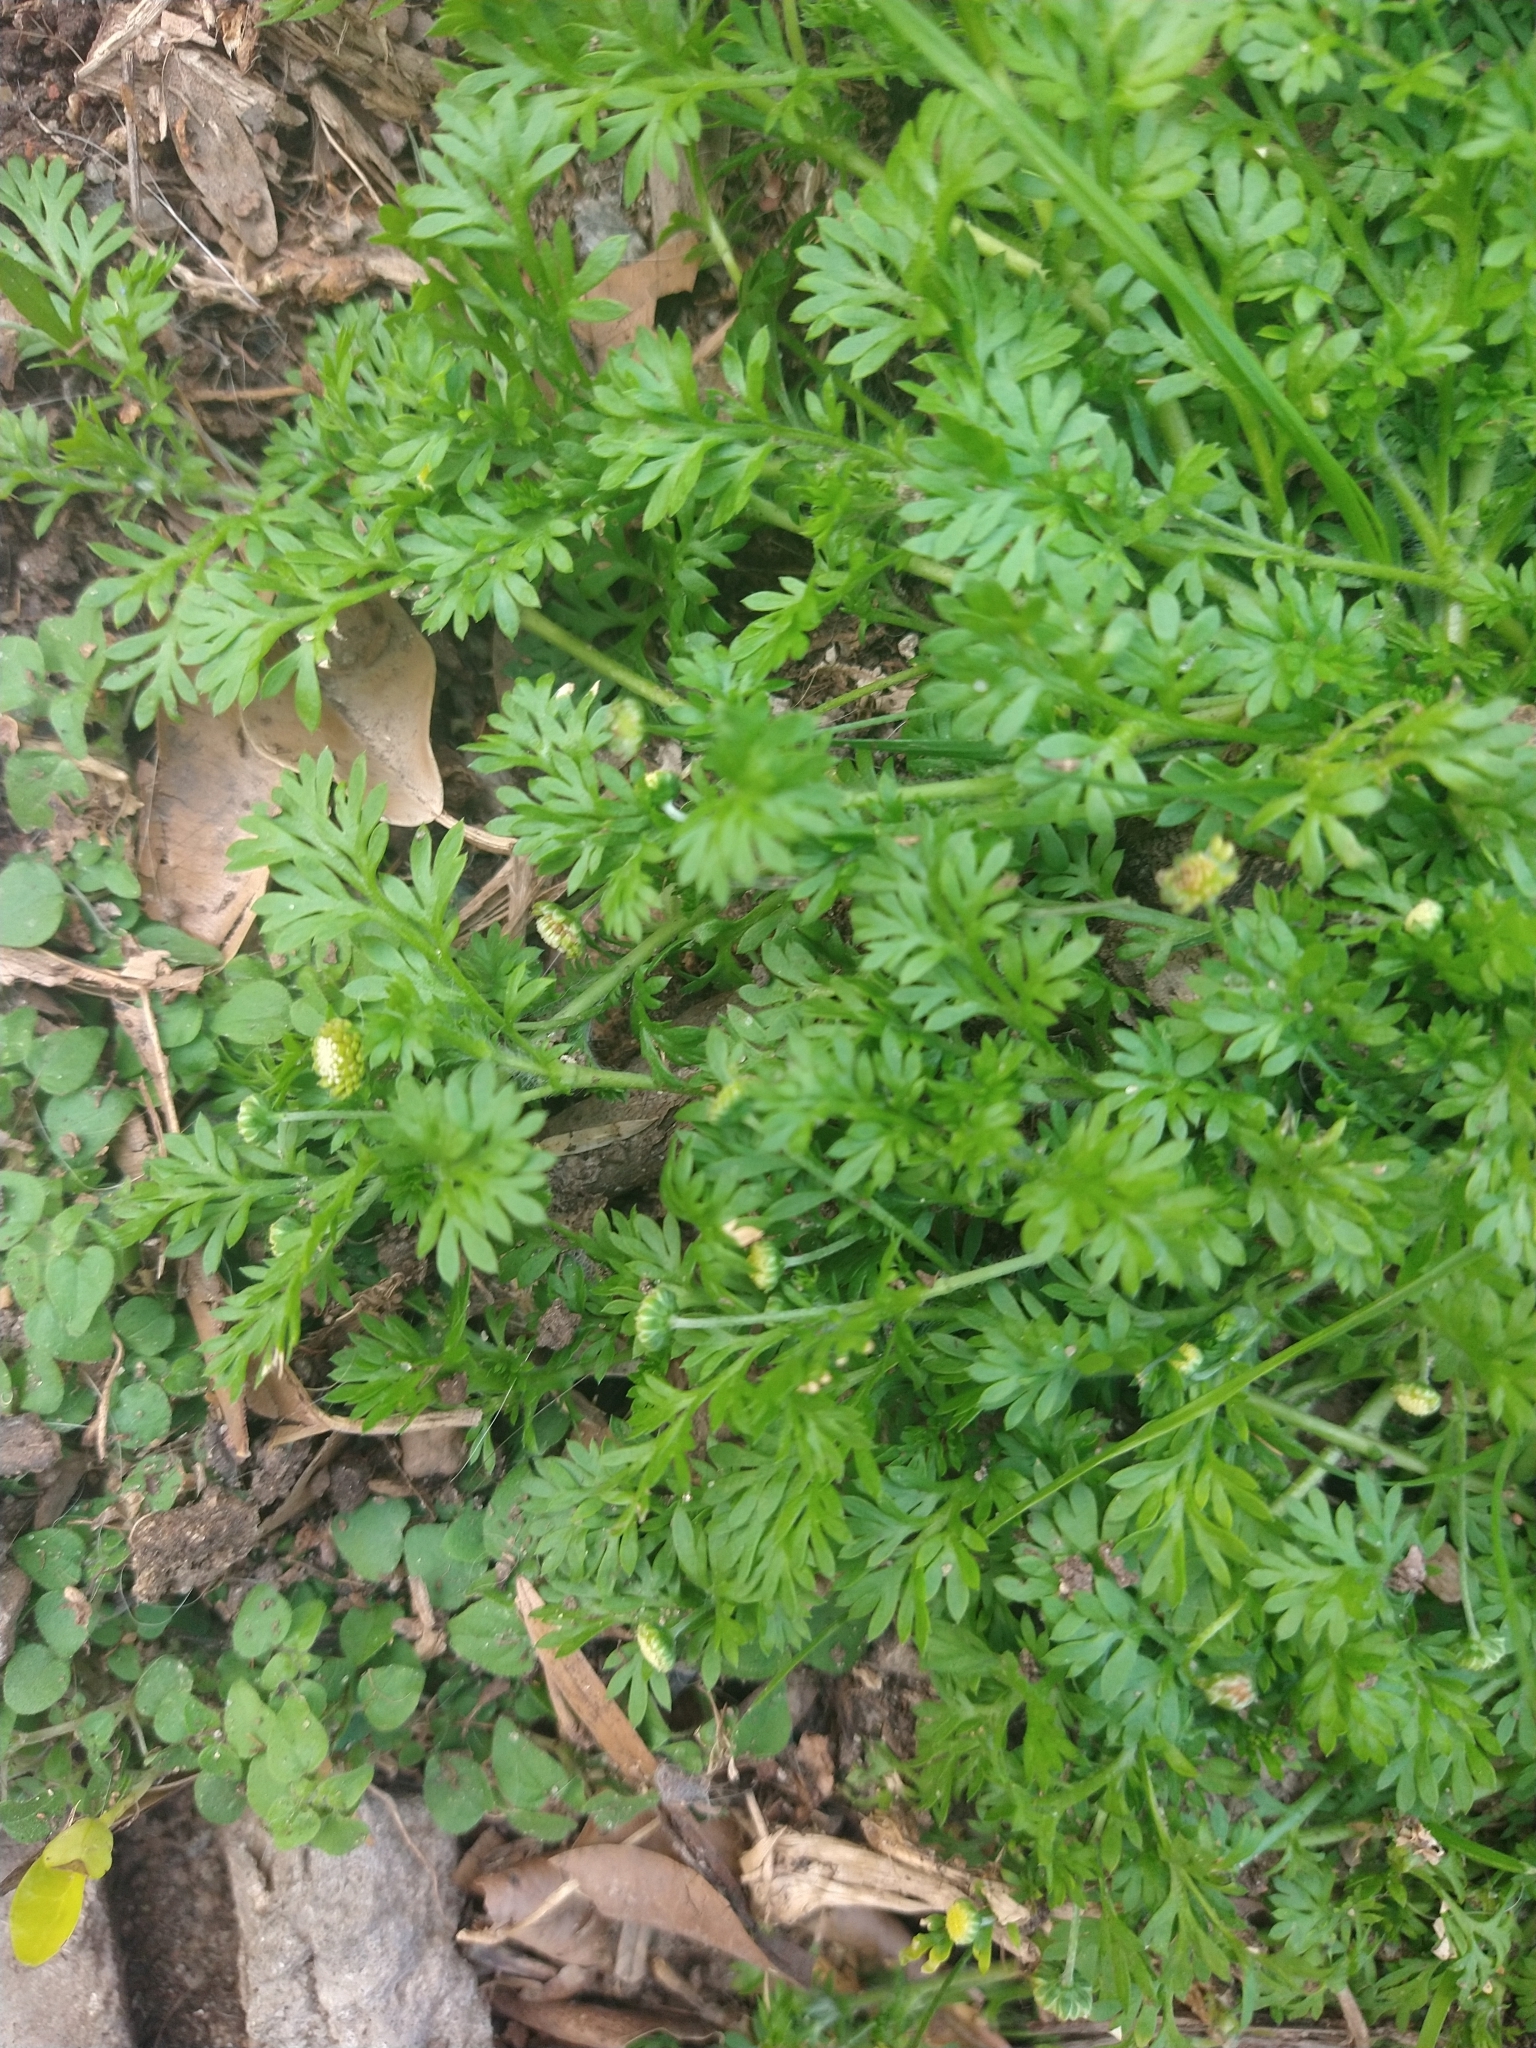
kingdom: Plantae
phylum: Tracheophyta
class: Magnoliopsida
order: Asterales
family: Asteraceae
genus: Cotula
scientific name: Cotula australis
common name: Australian waterbuttons
